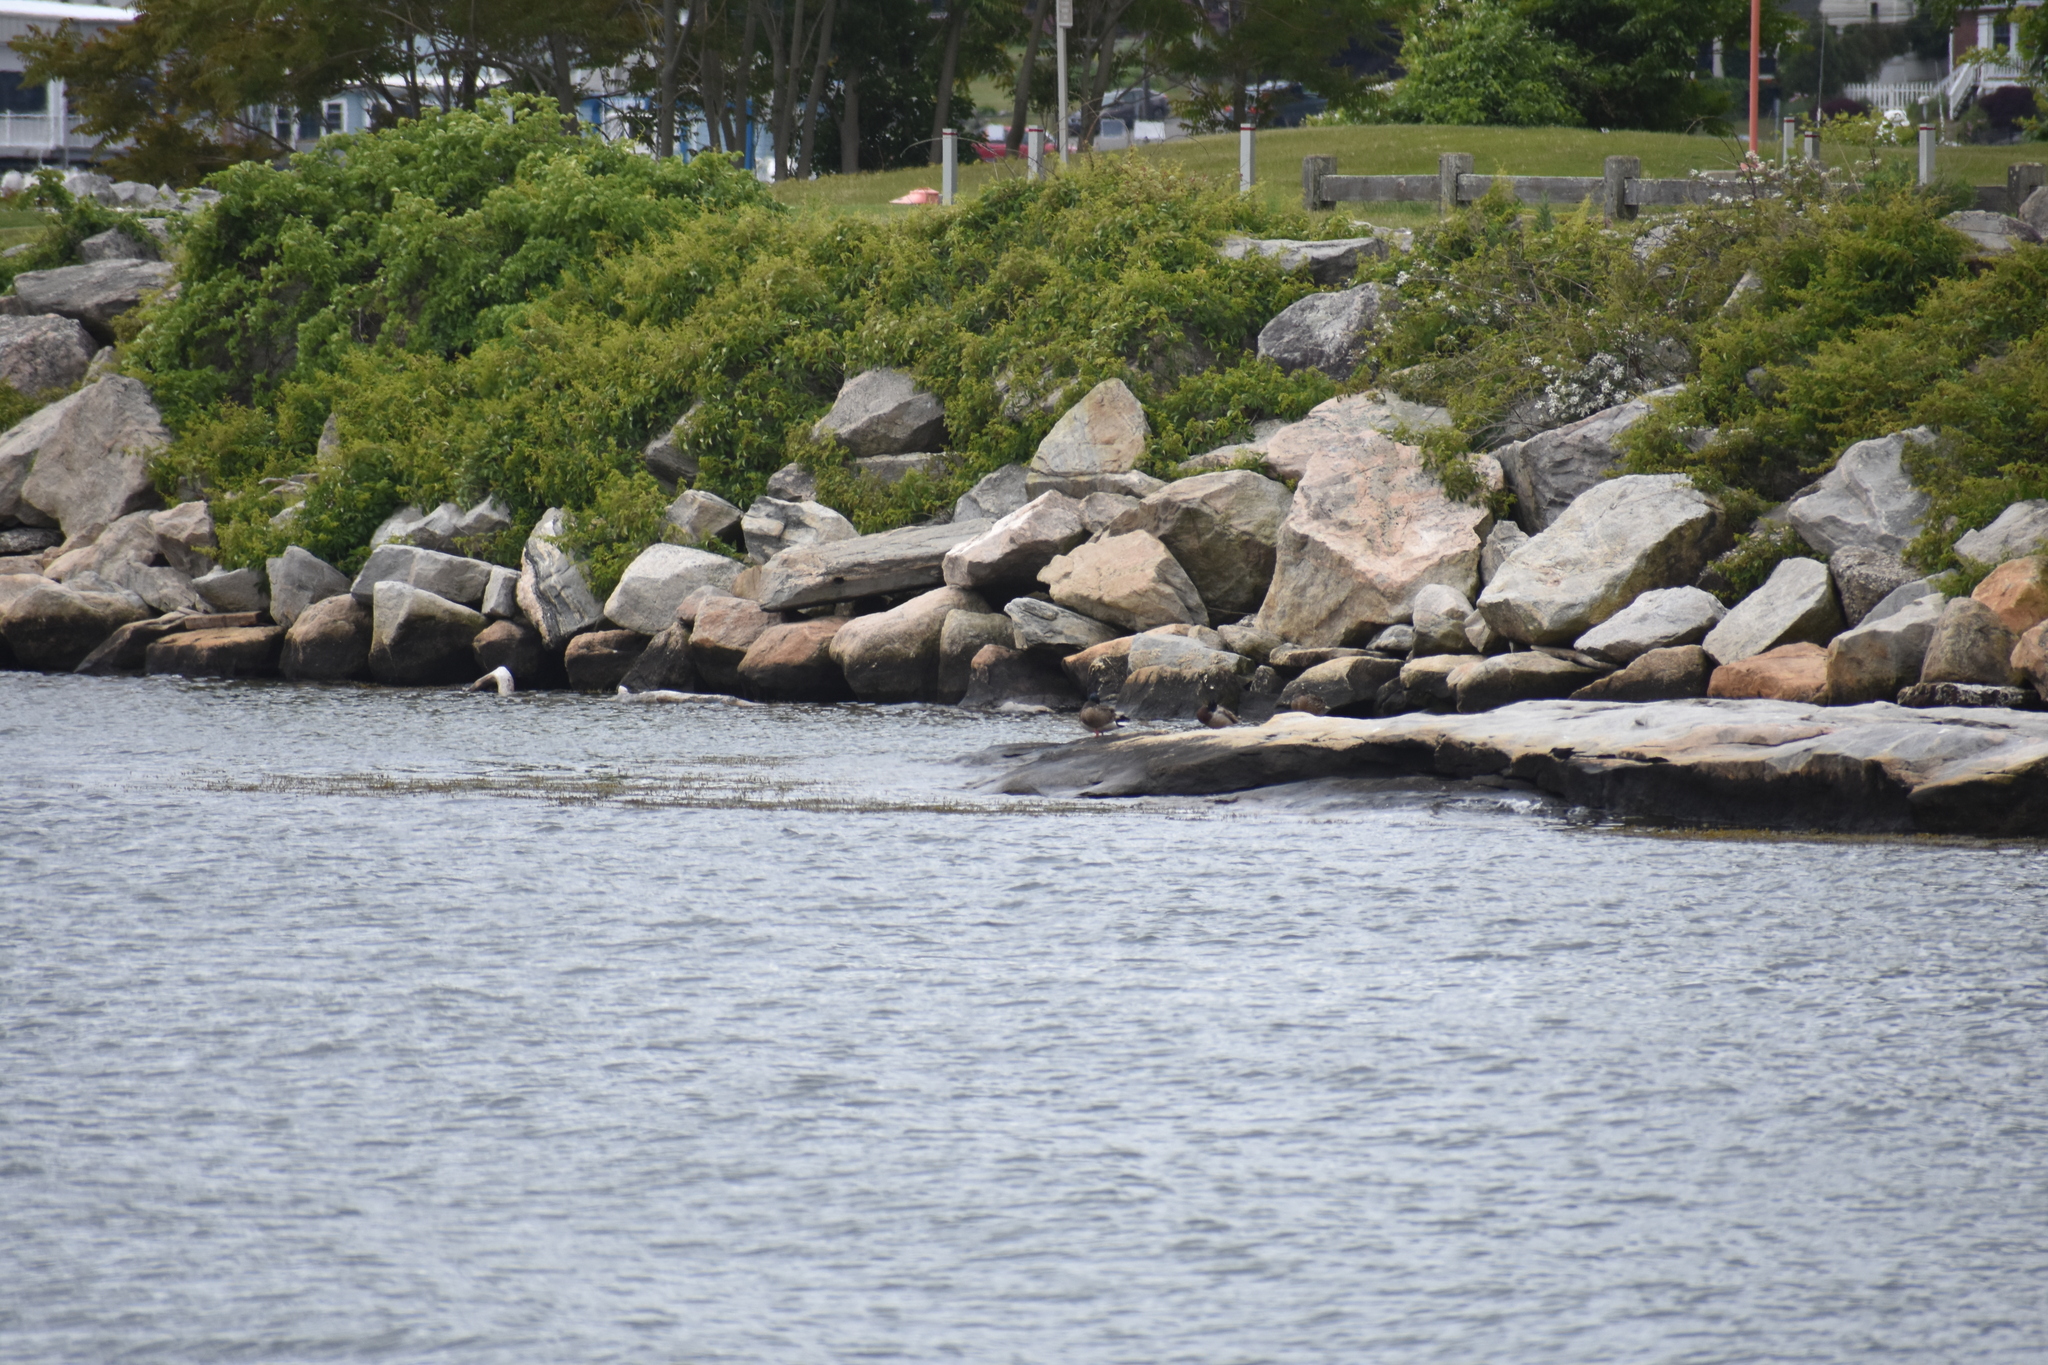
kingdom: Animalia
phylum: Chordata
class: Aves
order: Anseriformes
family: Anatidae
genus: Anas
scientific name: Anas platyrhynchos
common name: Mallard
